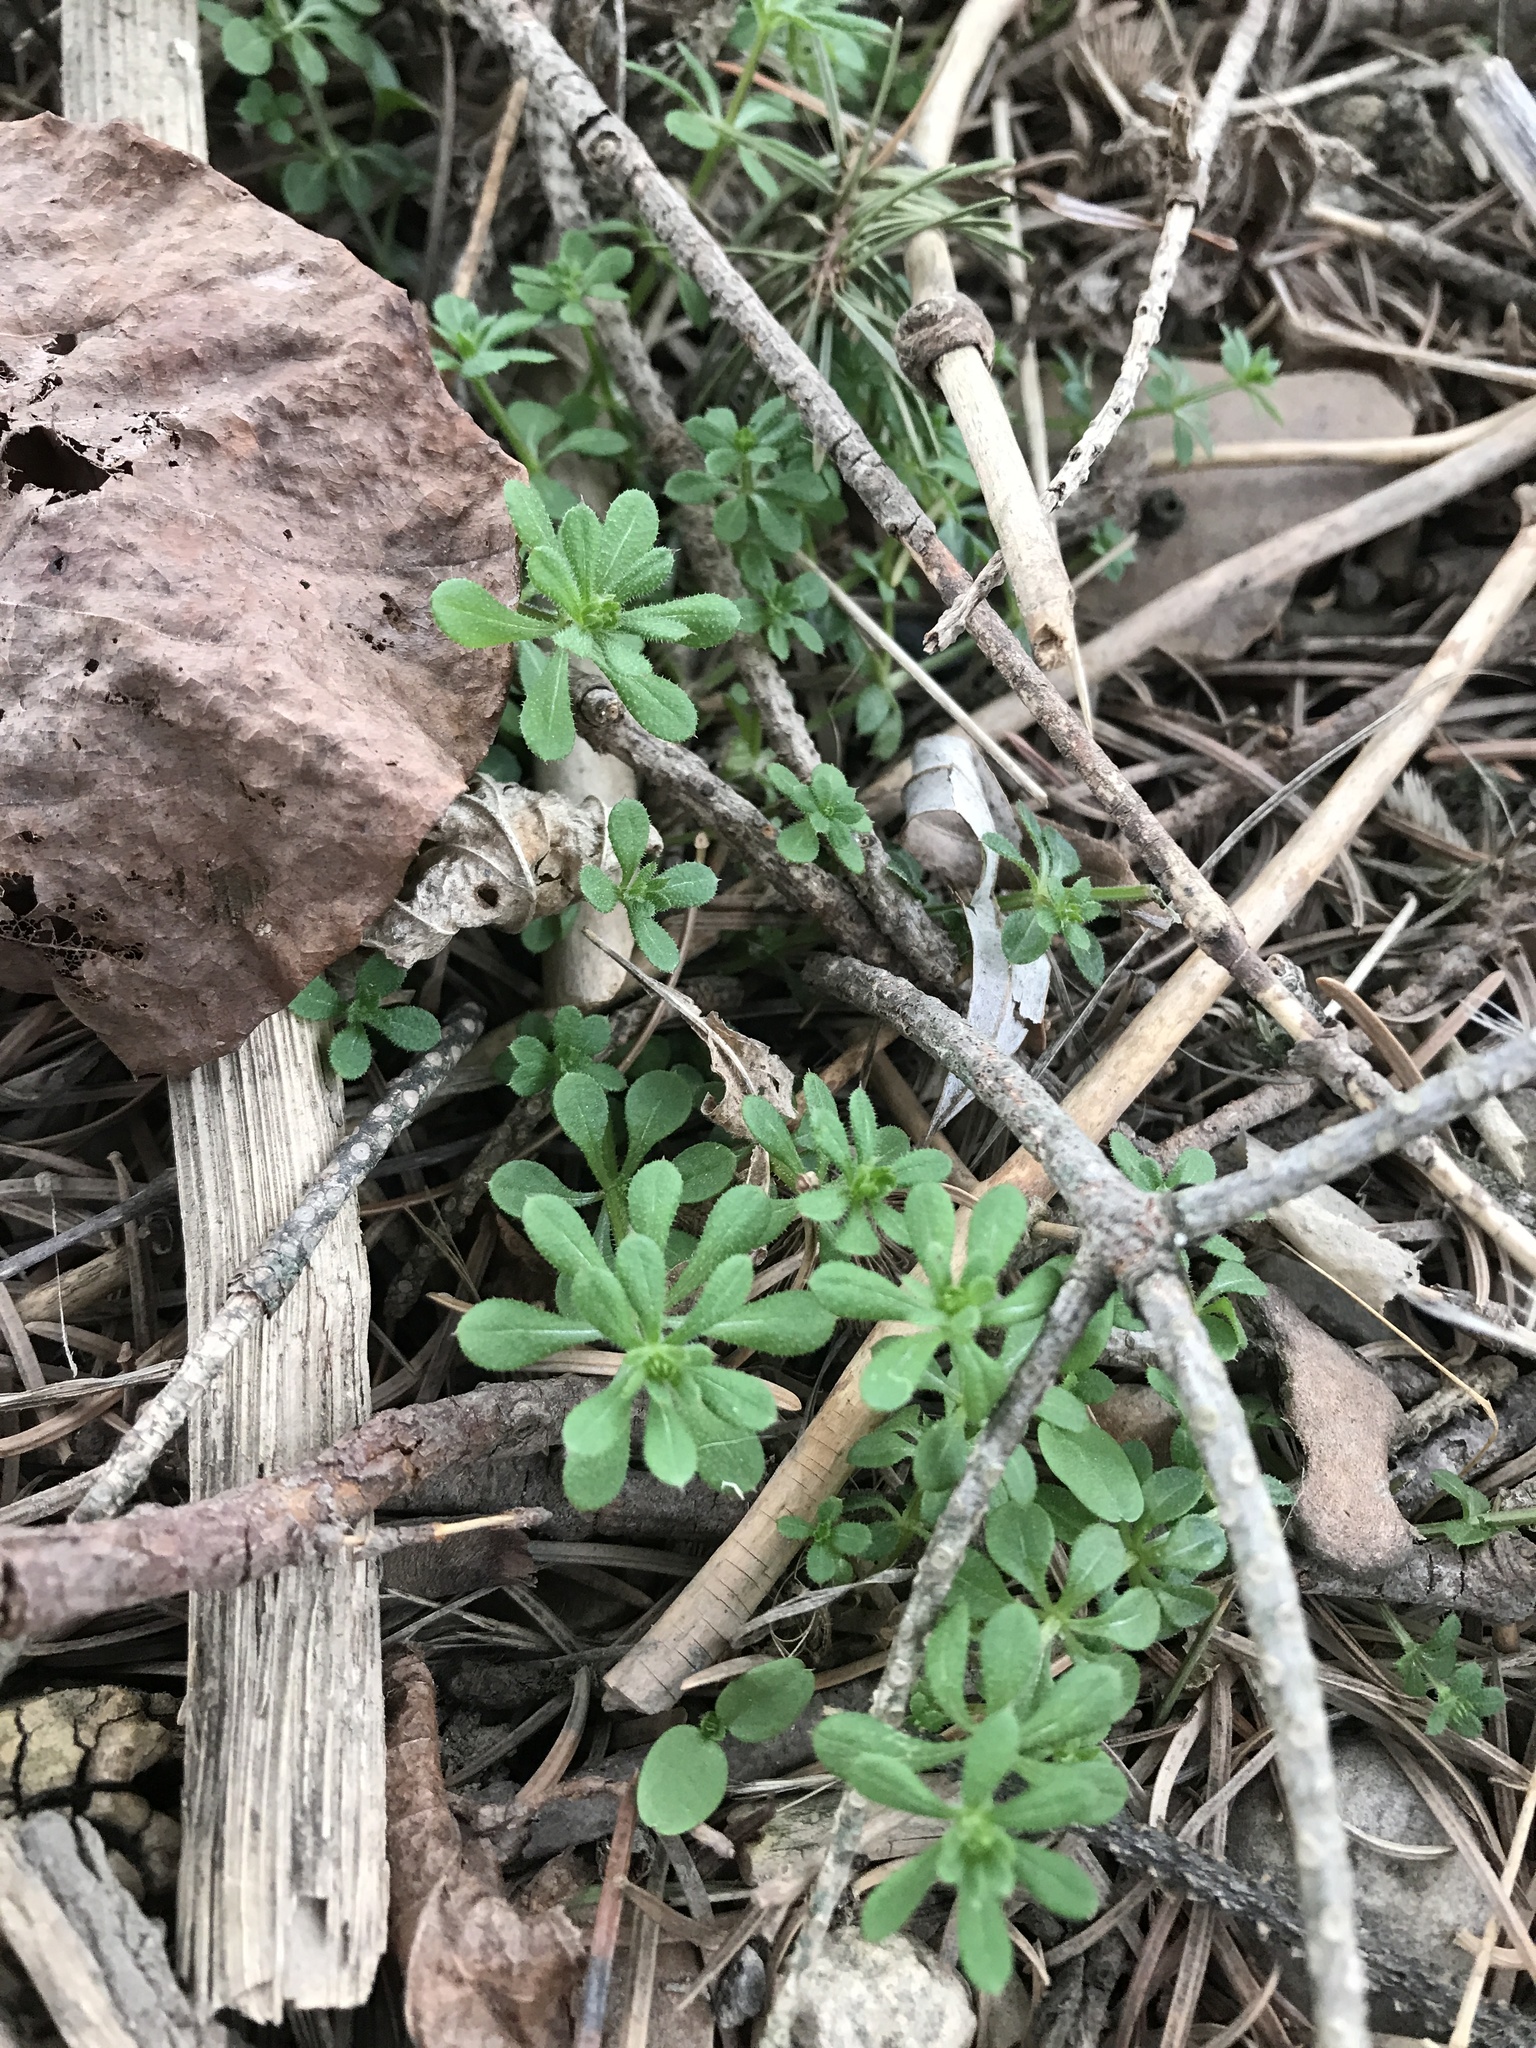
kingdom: Plantae
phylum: Tracheophyta
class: Magnoliopsida
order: Gentianales
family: Rubiaceae
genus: Galium
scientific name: Galium aparine
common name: Cleavers
